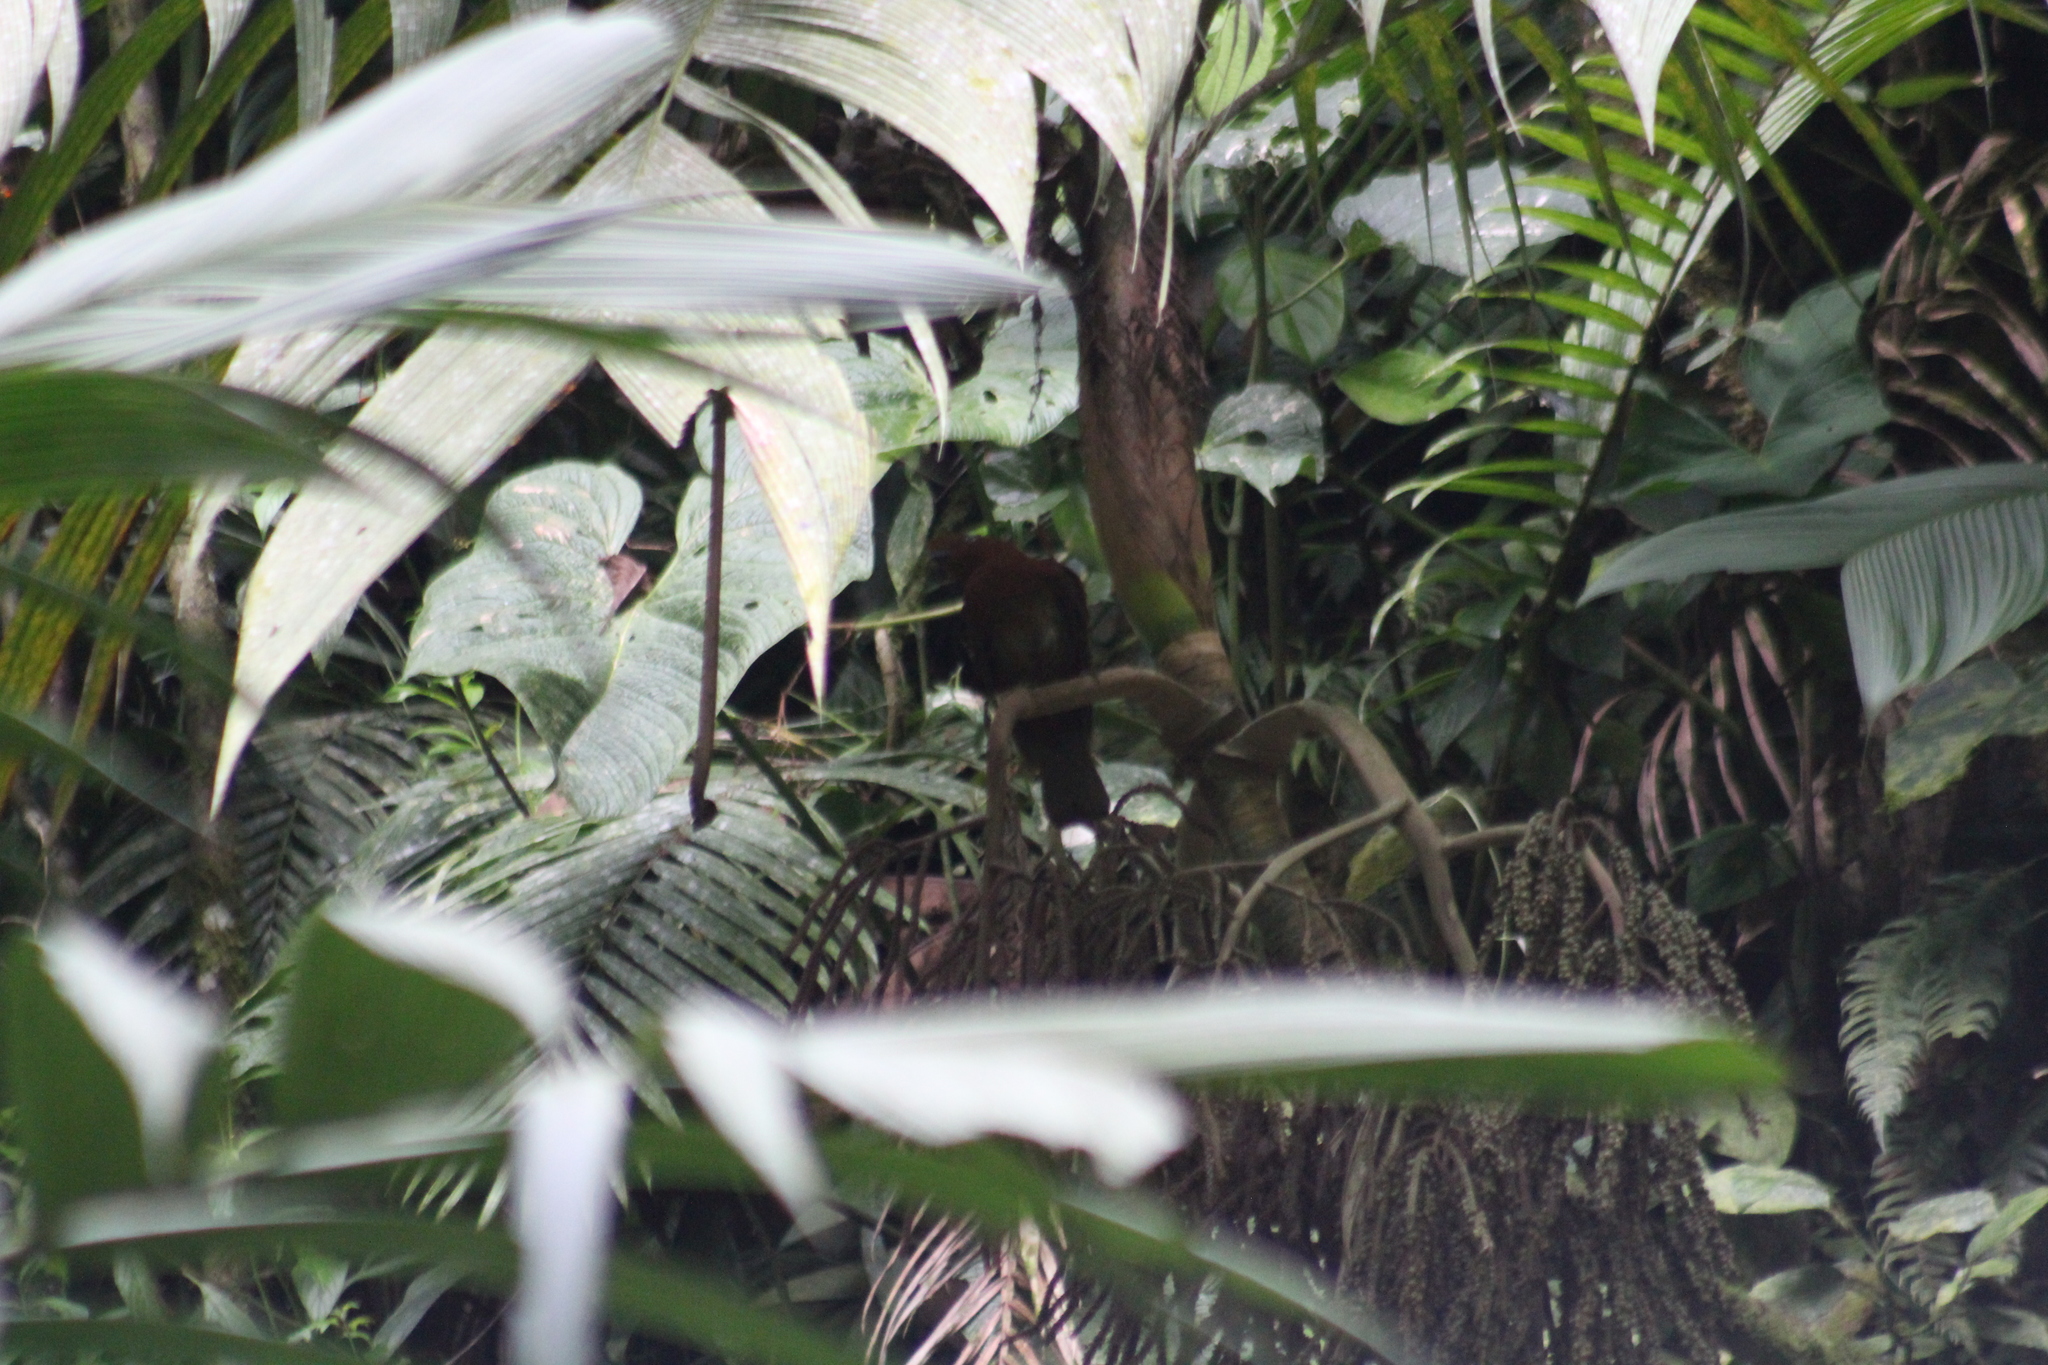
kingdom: Animalia
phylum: Chordata
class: Aves
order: Passeriformes
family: Cotingidae
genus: Rupicola
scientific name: Rupicola peruvianus
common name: Andean cock-of-the-rock
